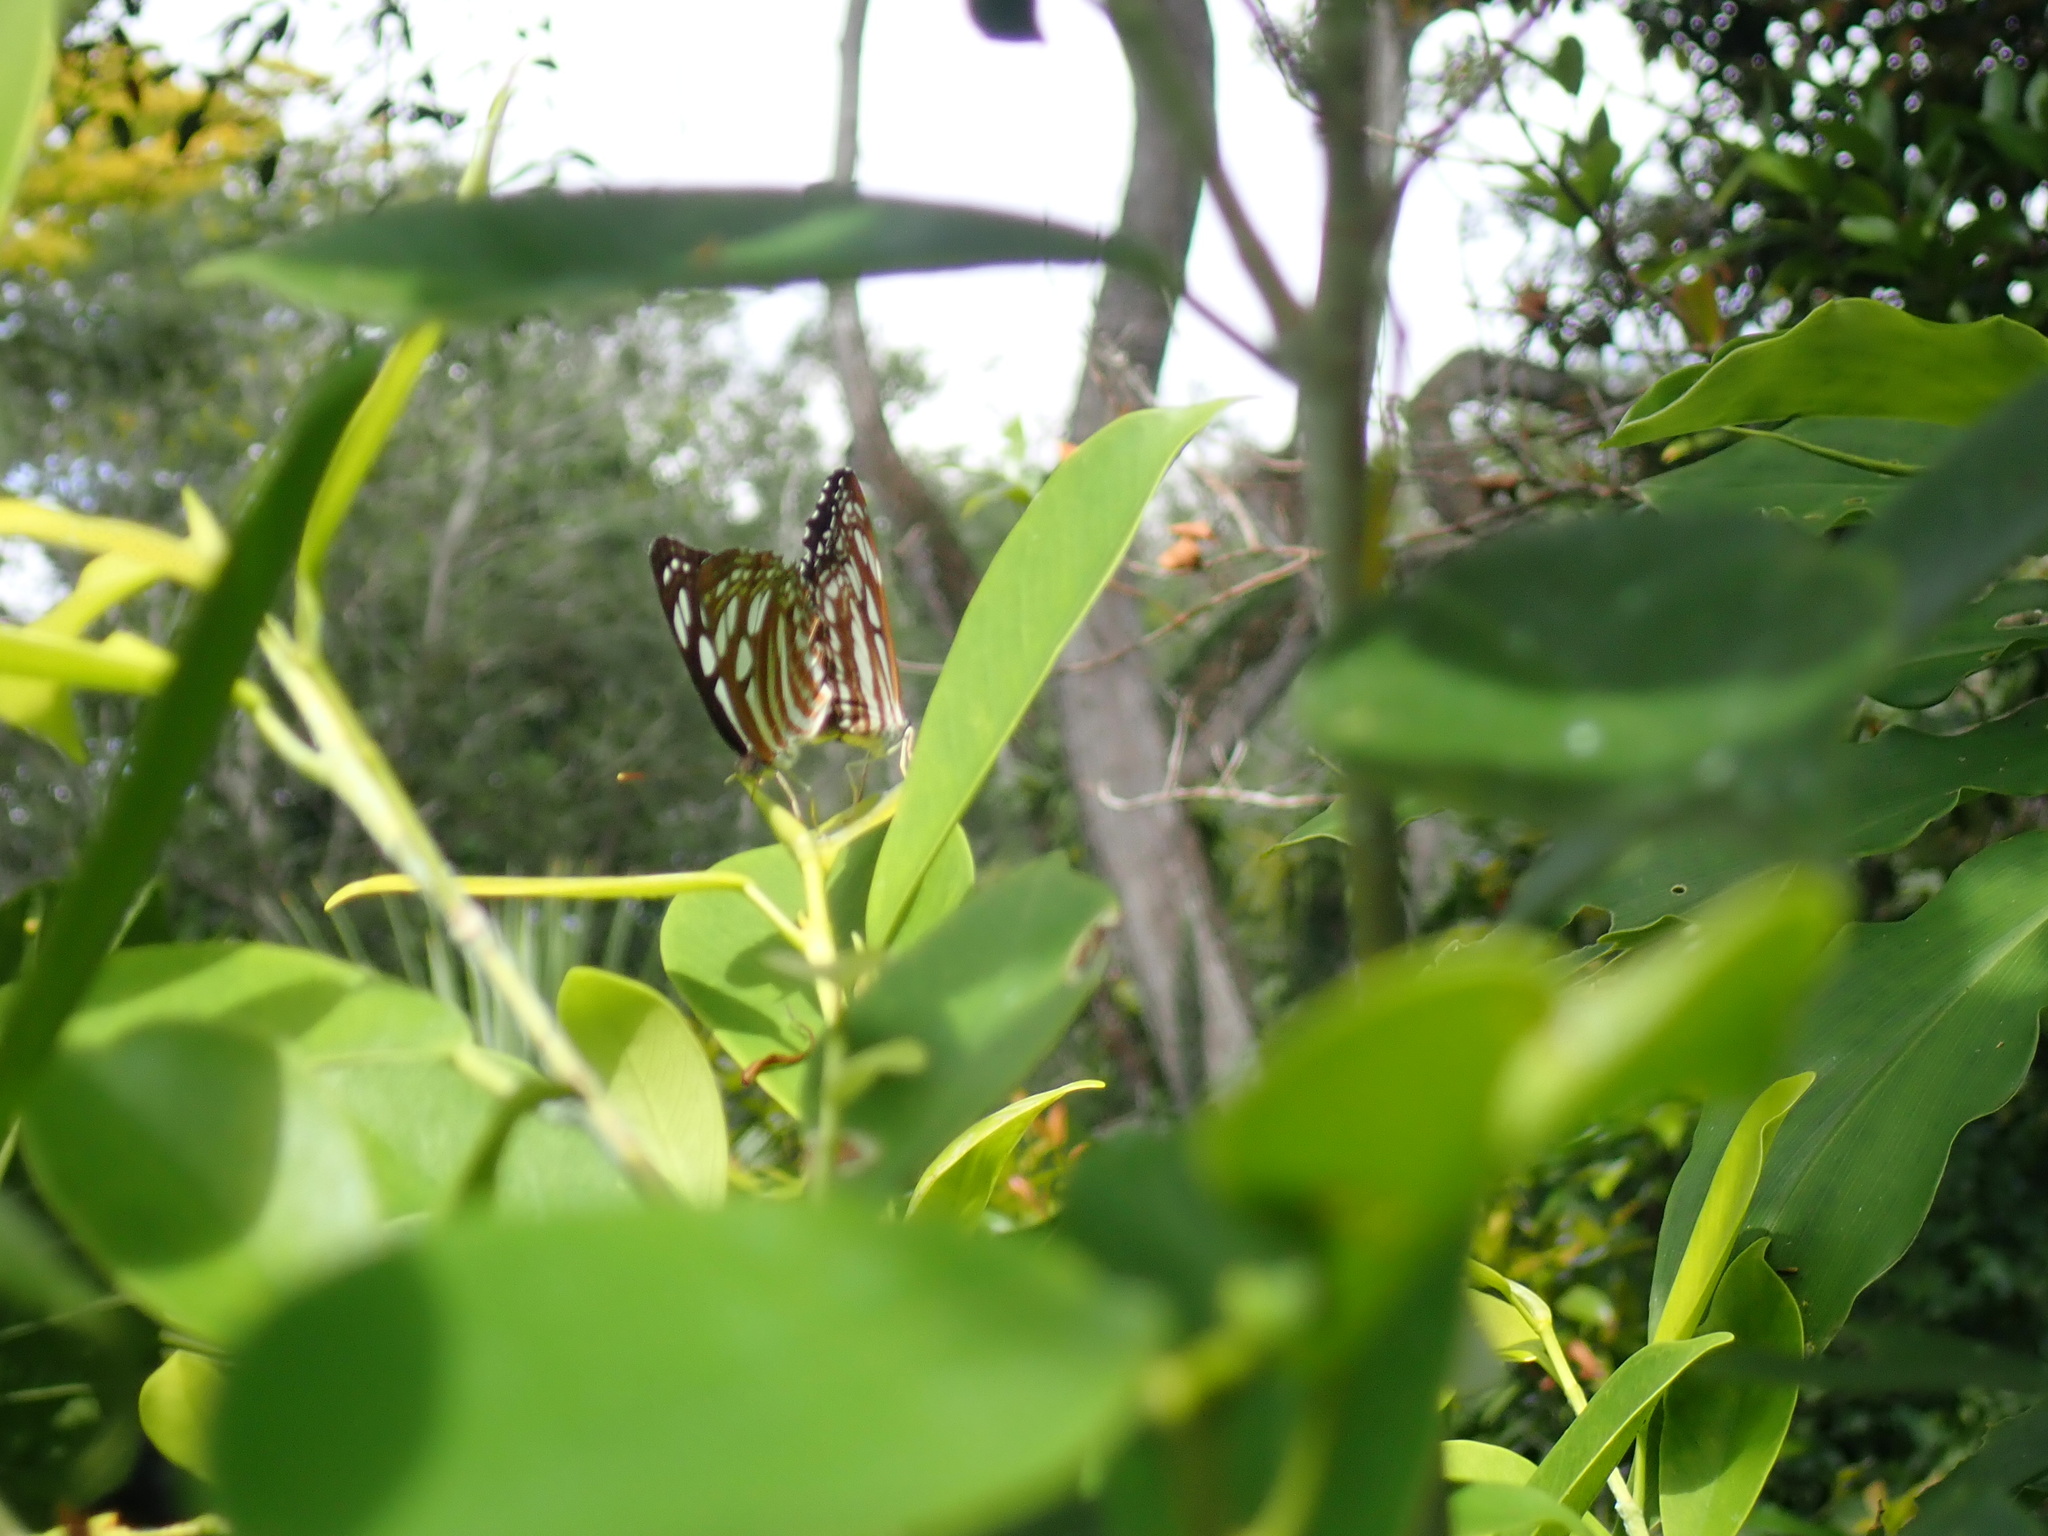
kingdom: Animalia
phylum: Arthropoda
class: Insecta
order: Lepidoptera
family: Nymphalidae
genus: Phaedyma
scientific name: Phaedyma columella
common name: Short banded sailer
